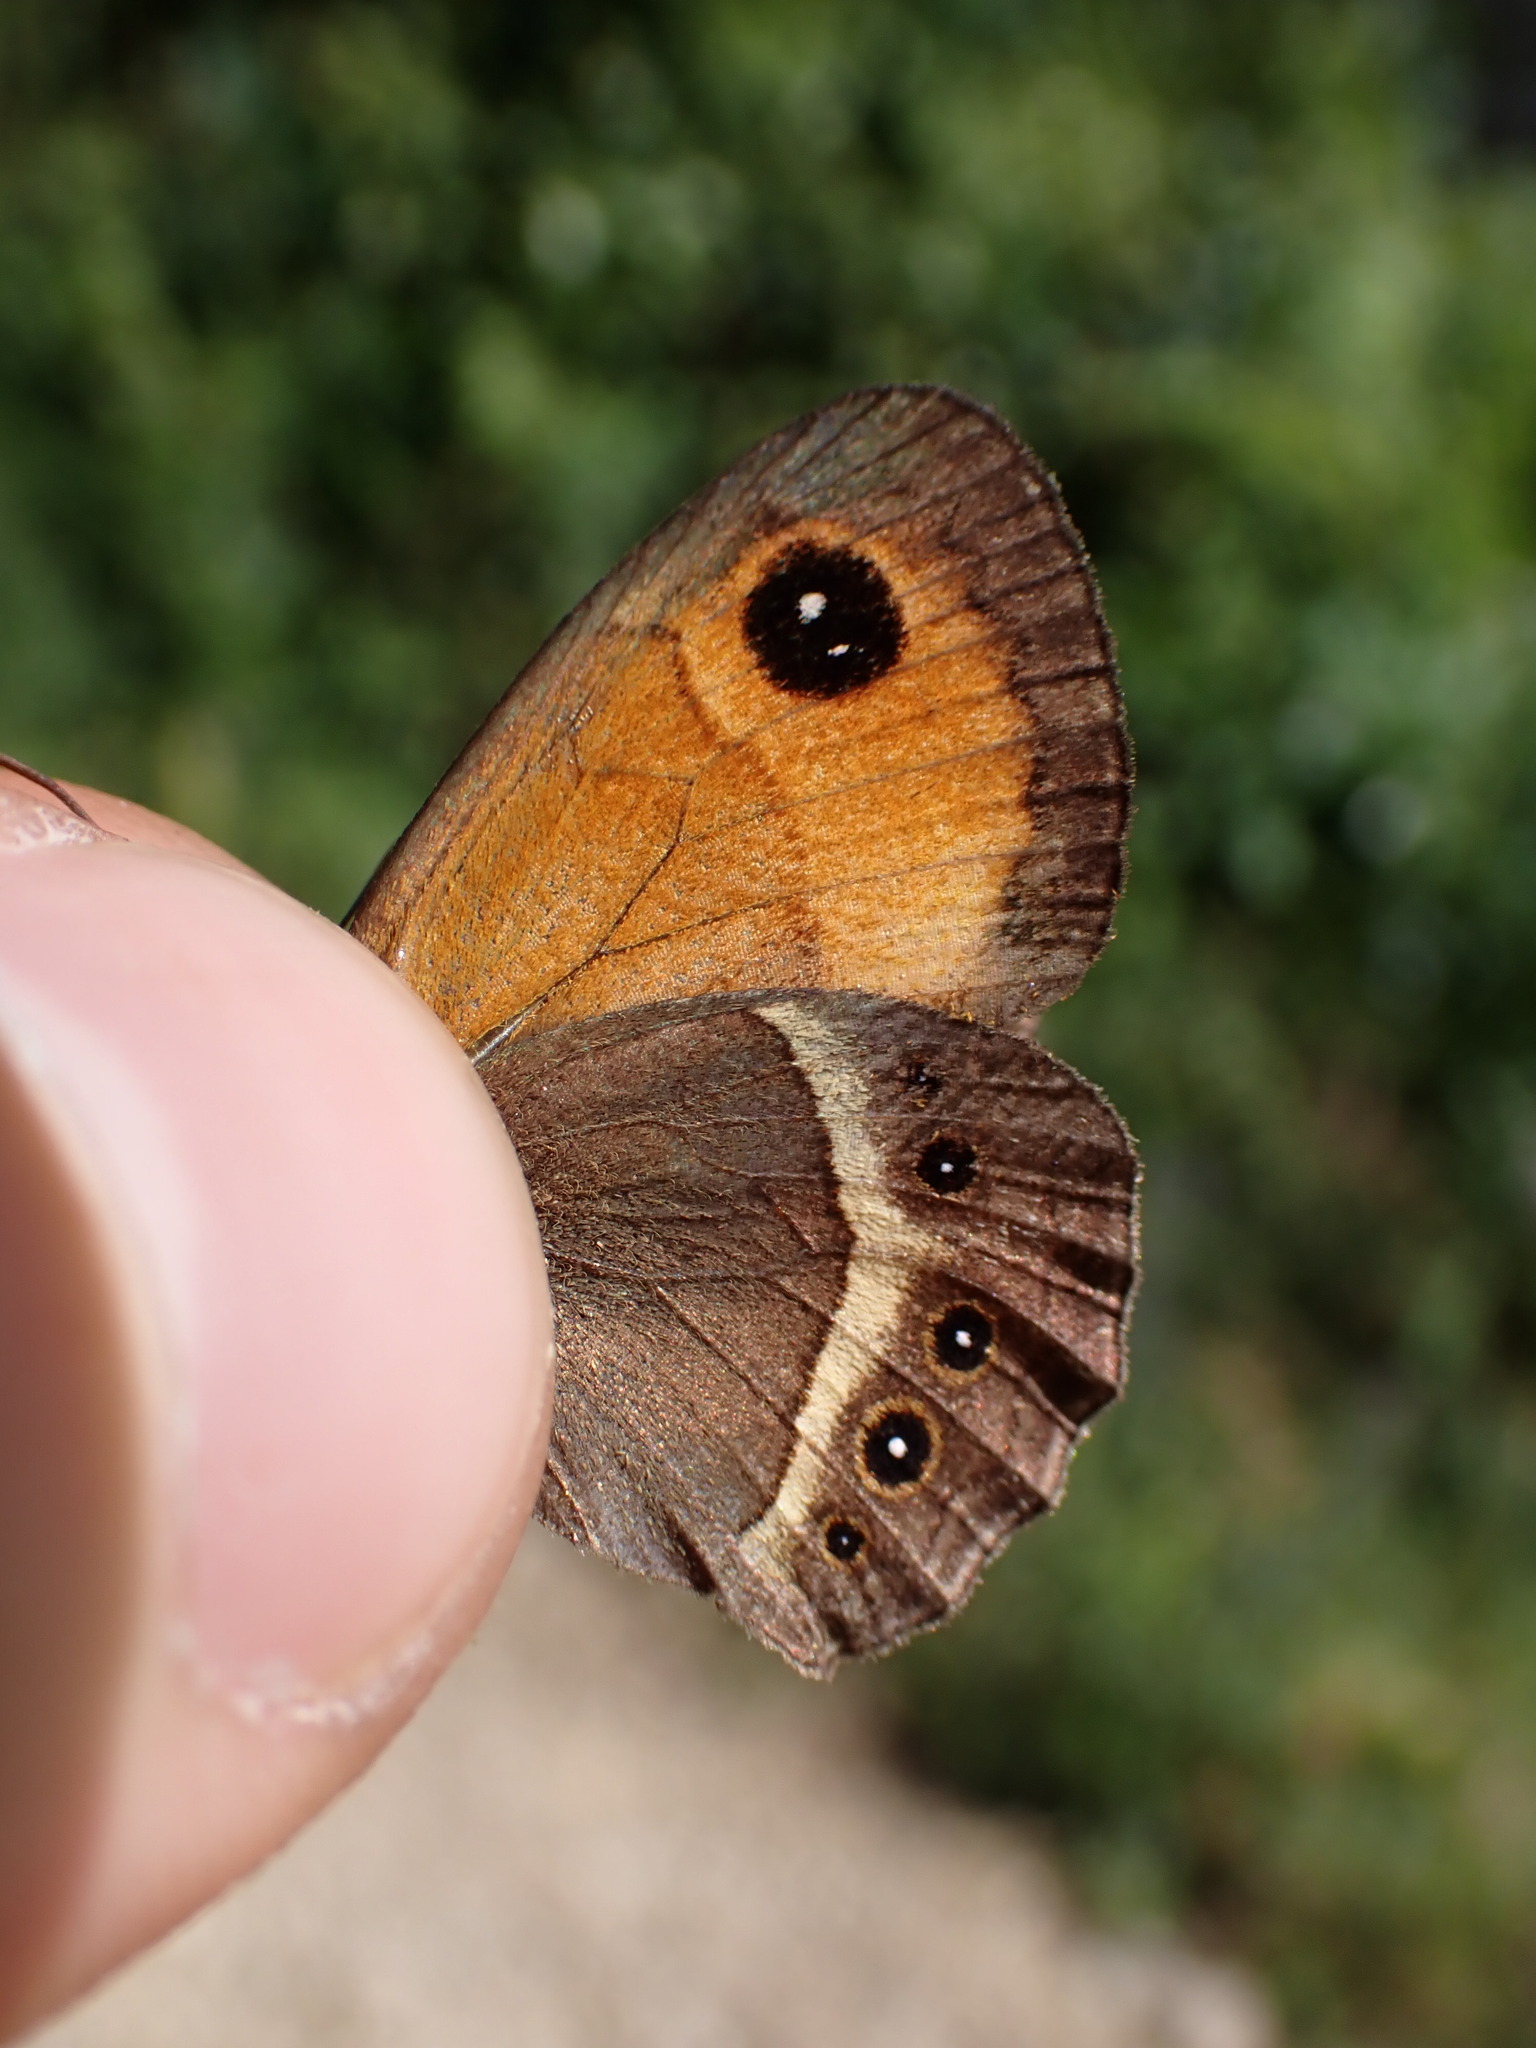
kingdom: Animalia
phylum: Arthropoda
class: Insecta
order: Lepidoptera
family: Nymphalidae
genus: Pyronia
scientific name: Pyronia bathseba
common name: Spanish gatekeeper
